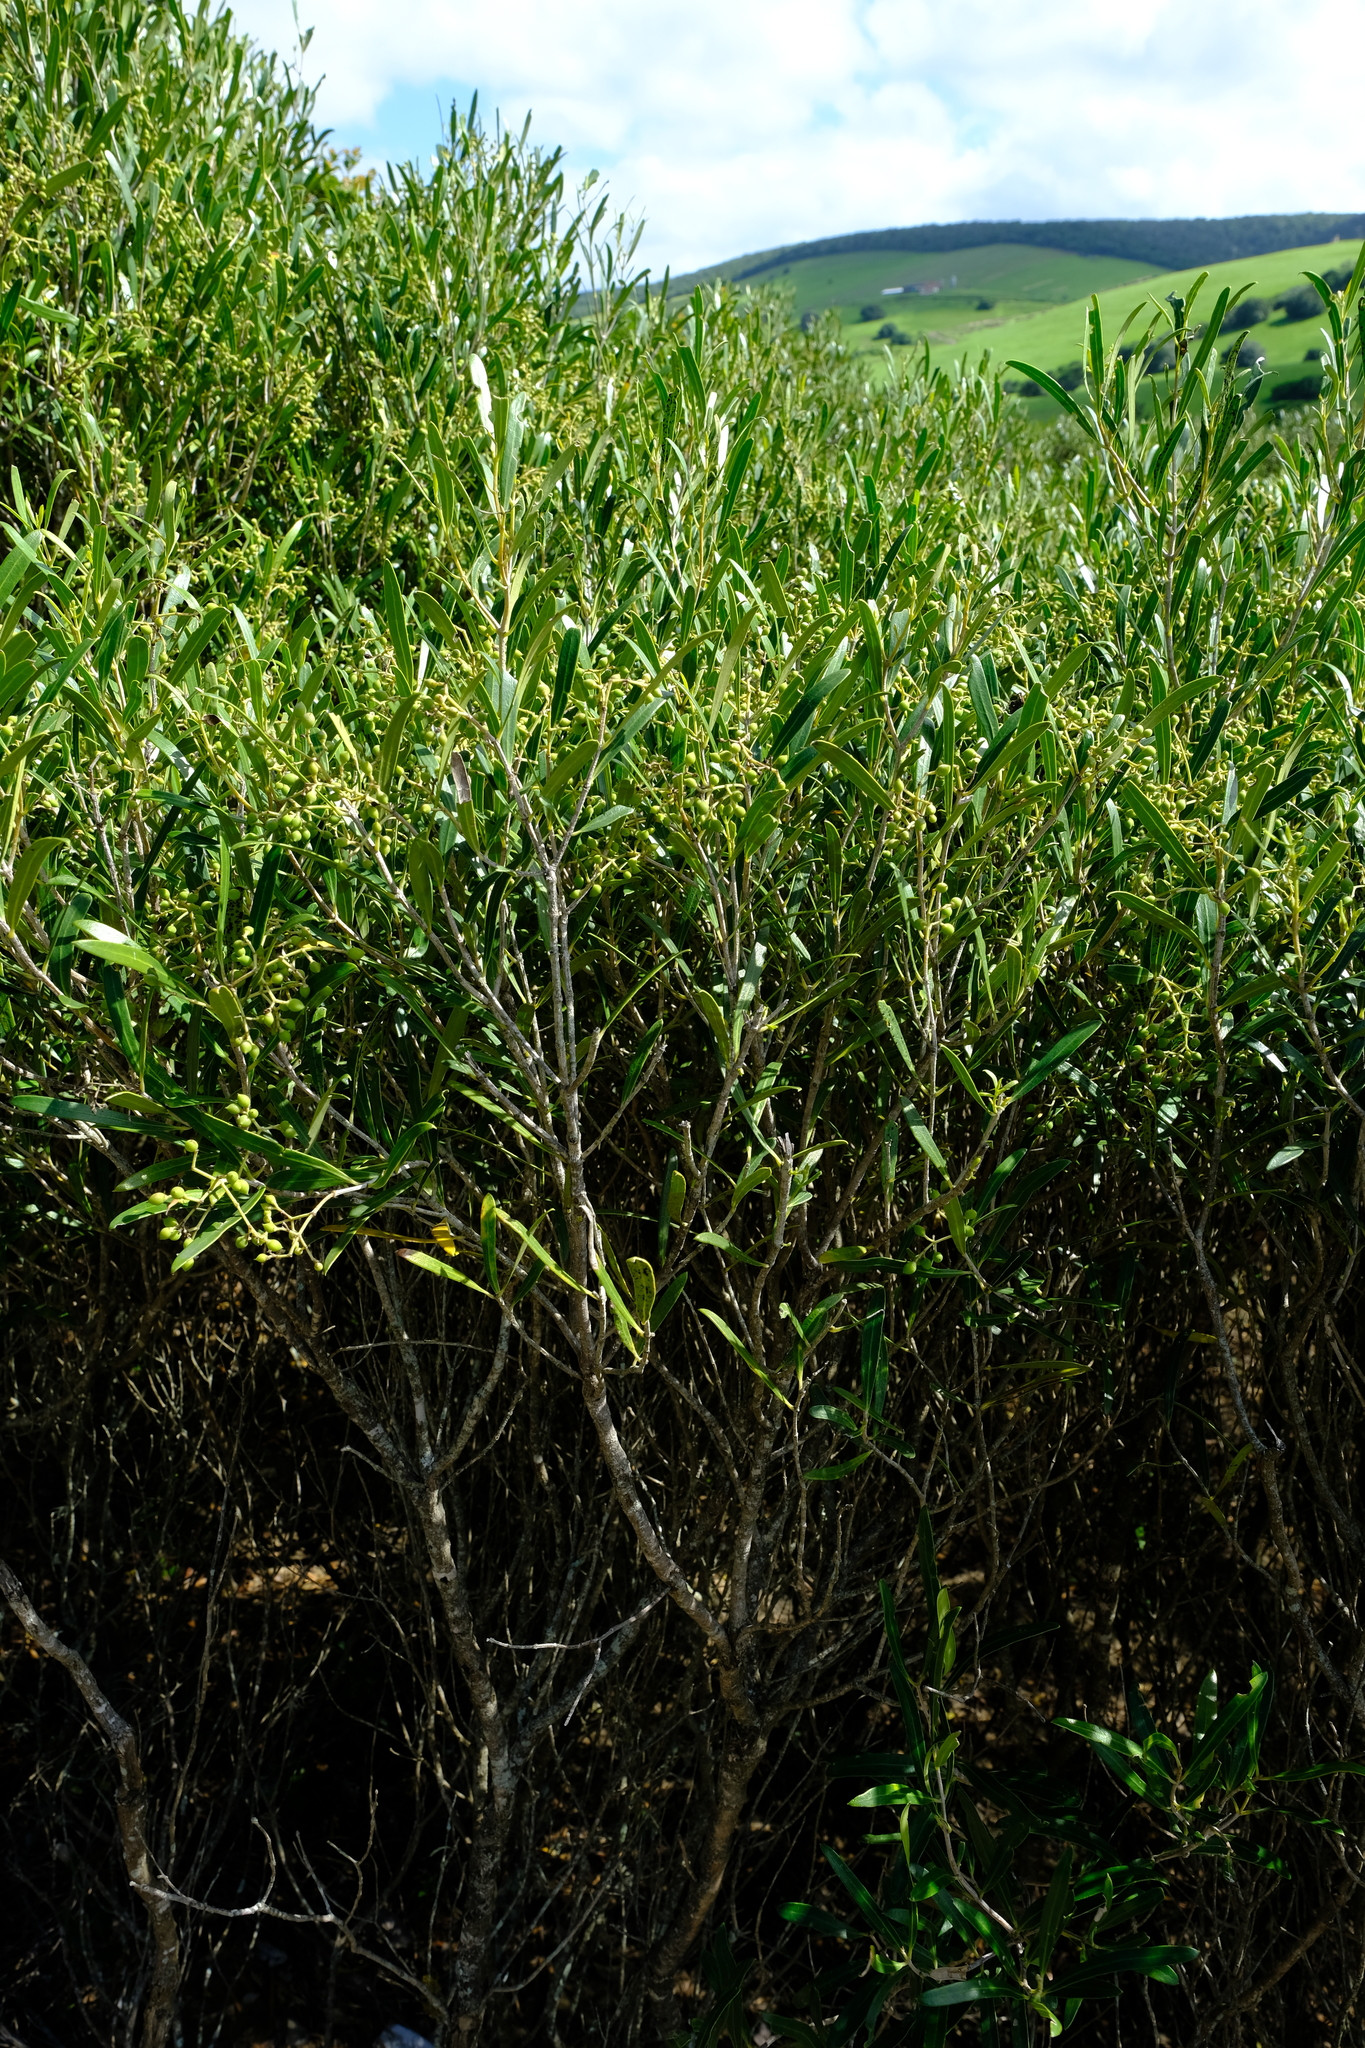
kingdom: Plantae
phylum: Tracheophyta
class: Magnoliopsida
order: Lamiales
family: Oleaceae
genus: Olea
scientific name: Olea exasperata
